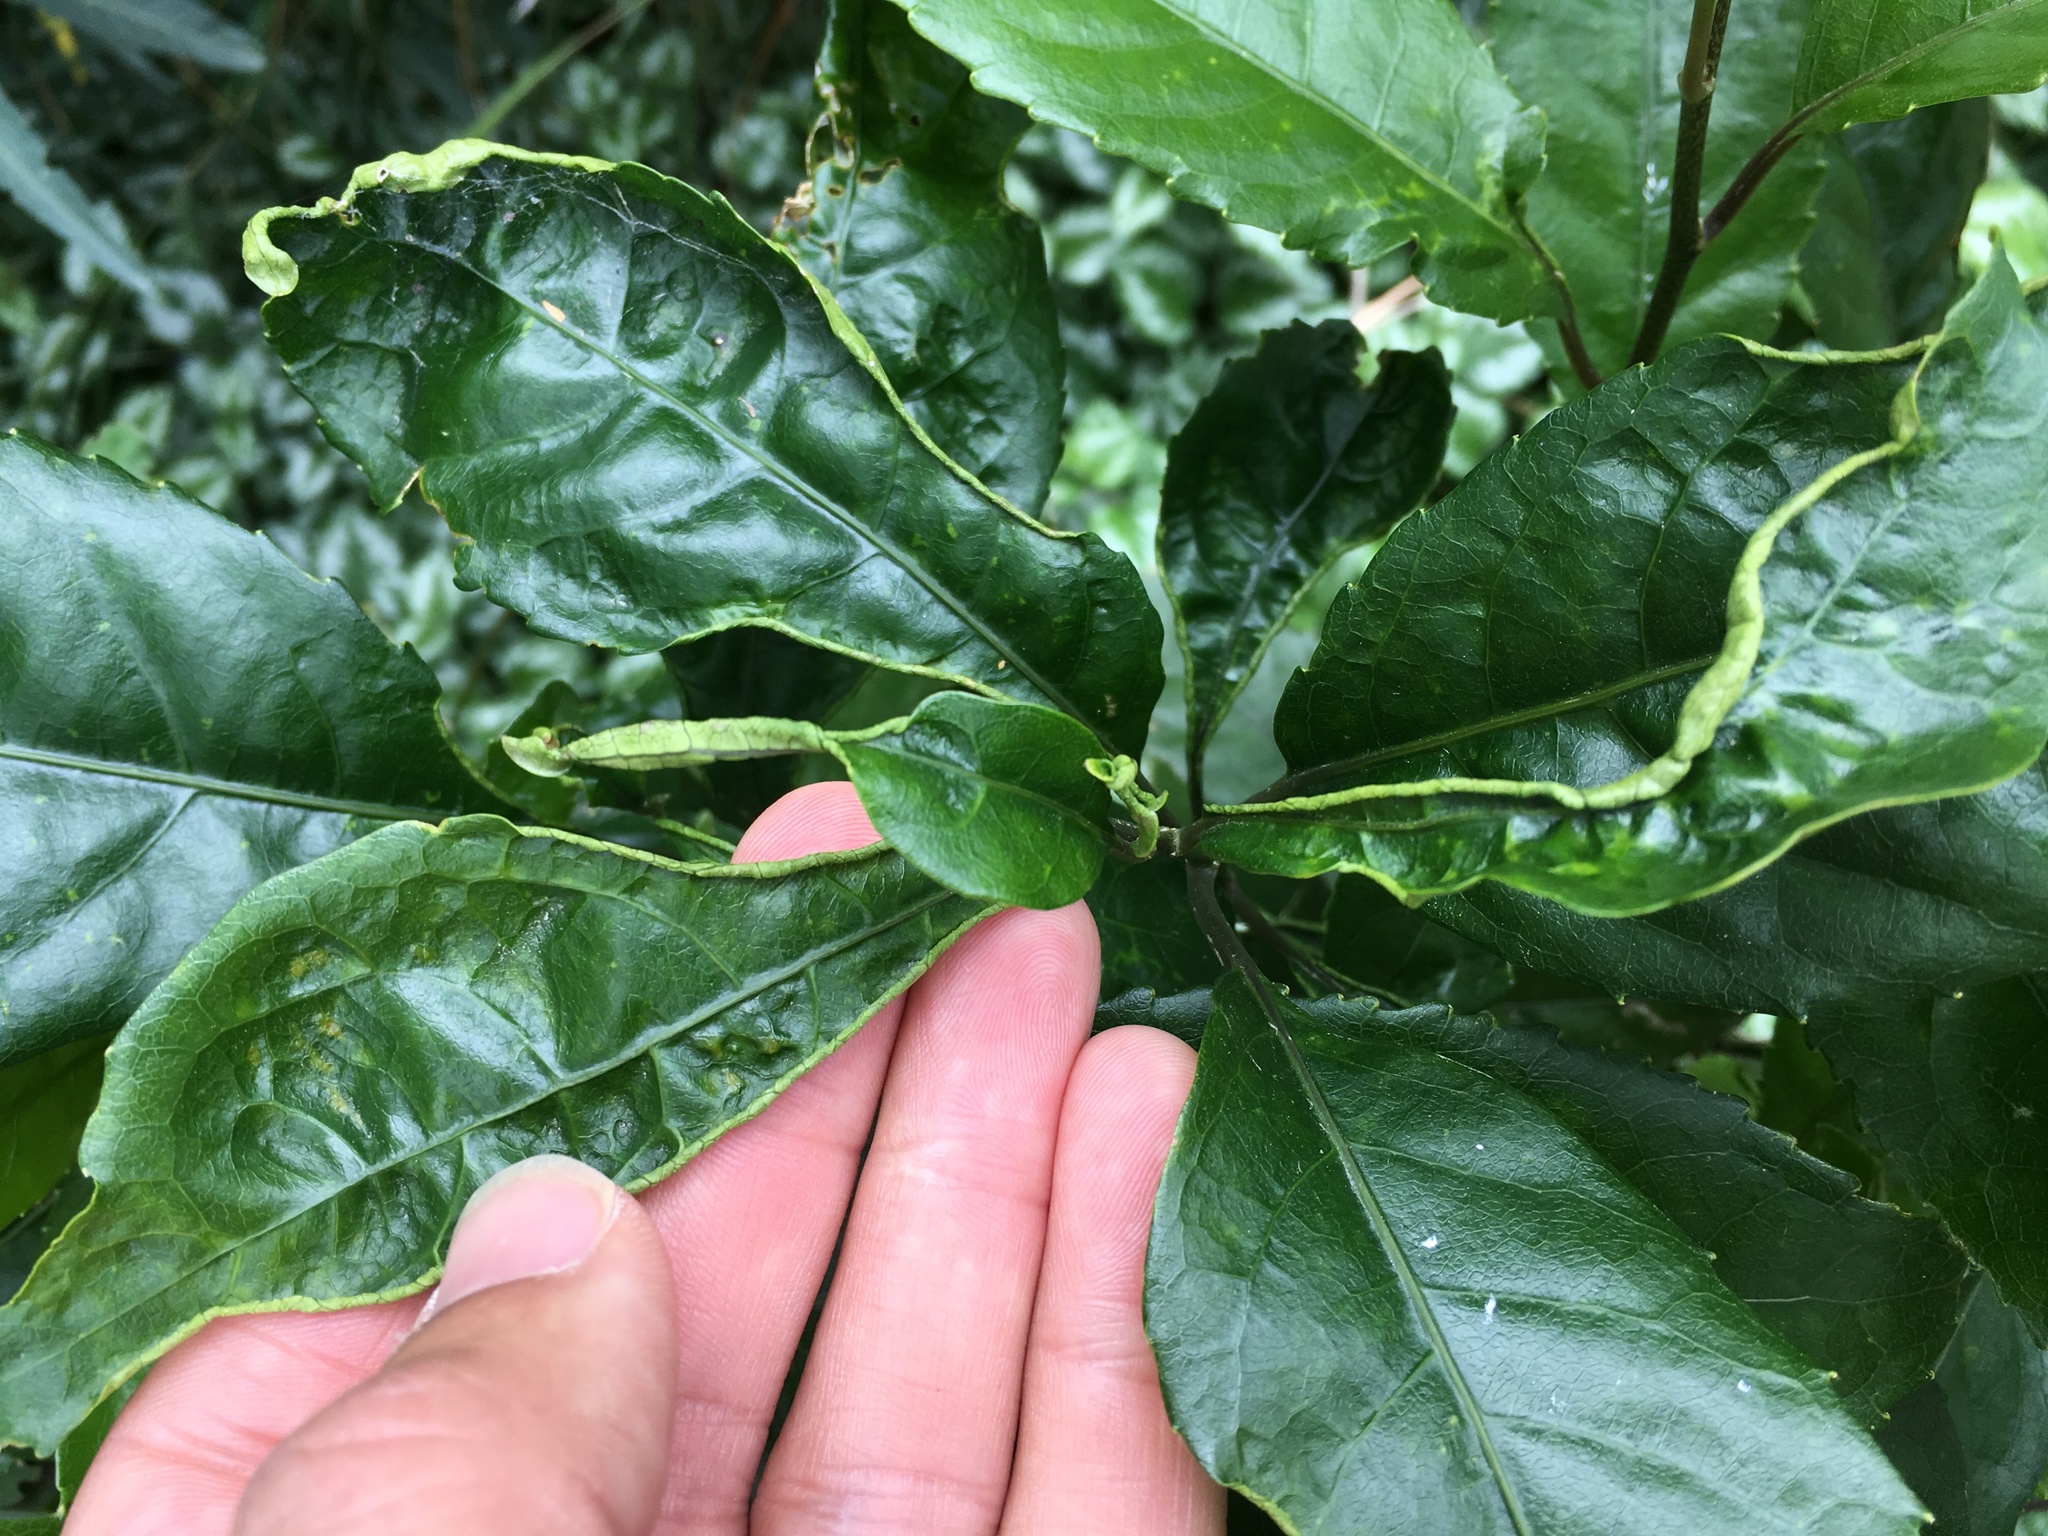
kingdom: Animalia
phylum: Arthropoda
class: Arachnida
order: Trombidiformes
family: Eriophyidae
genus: Aceria
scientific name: Aceria
